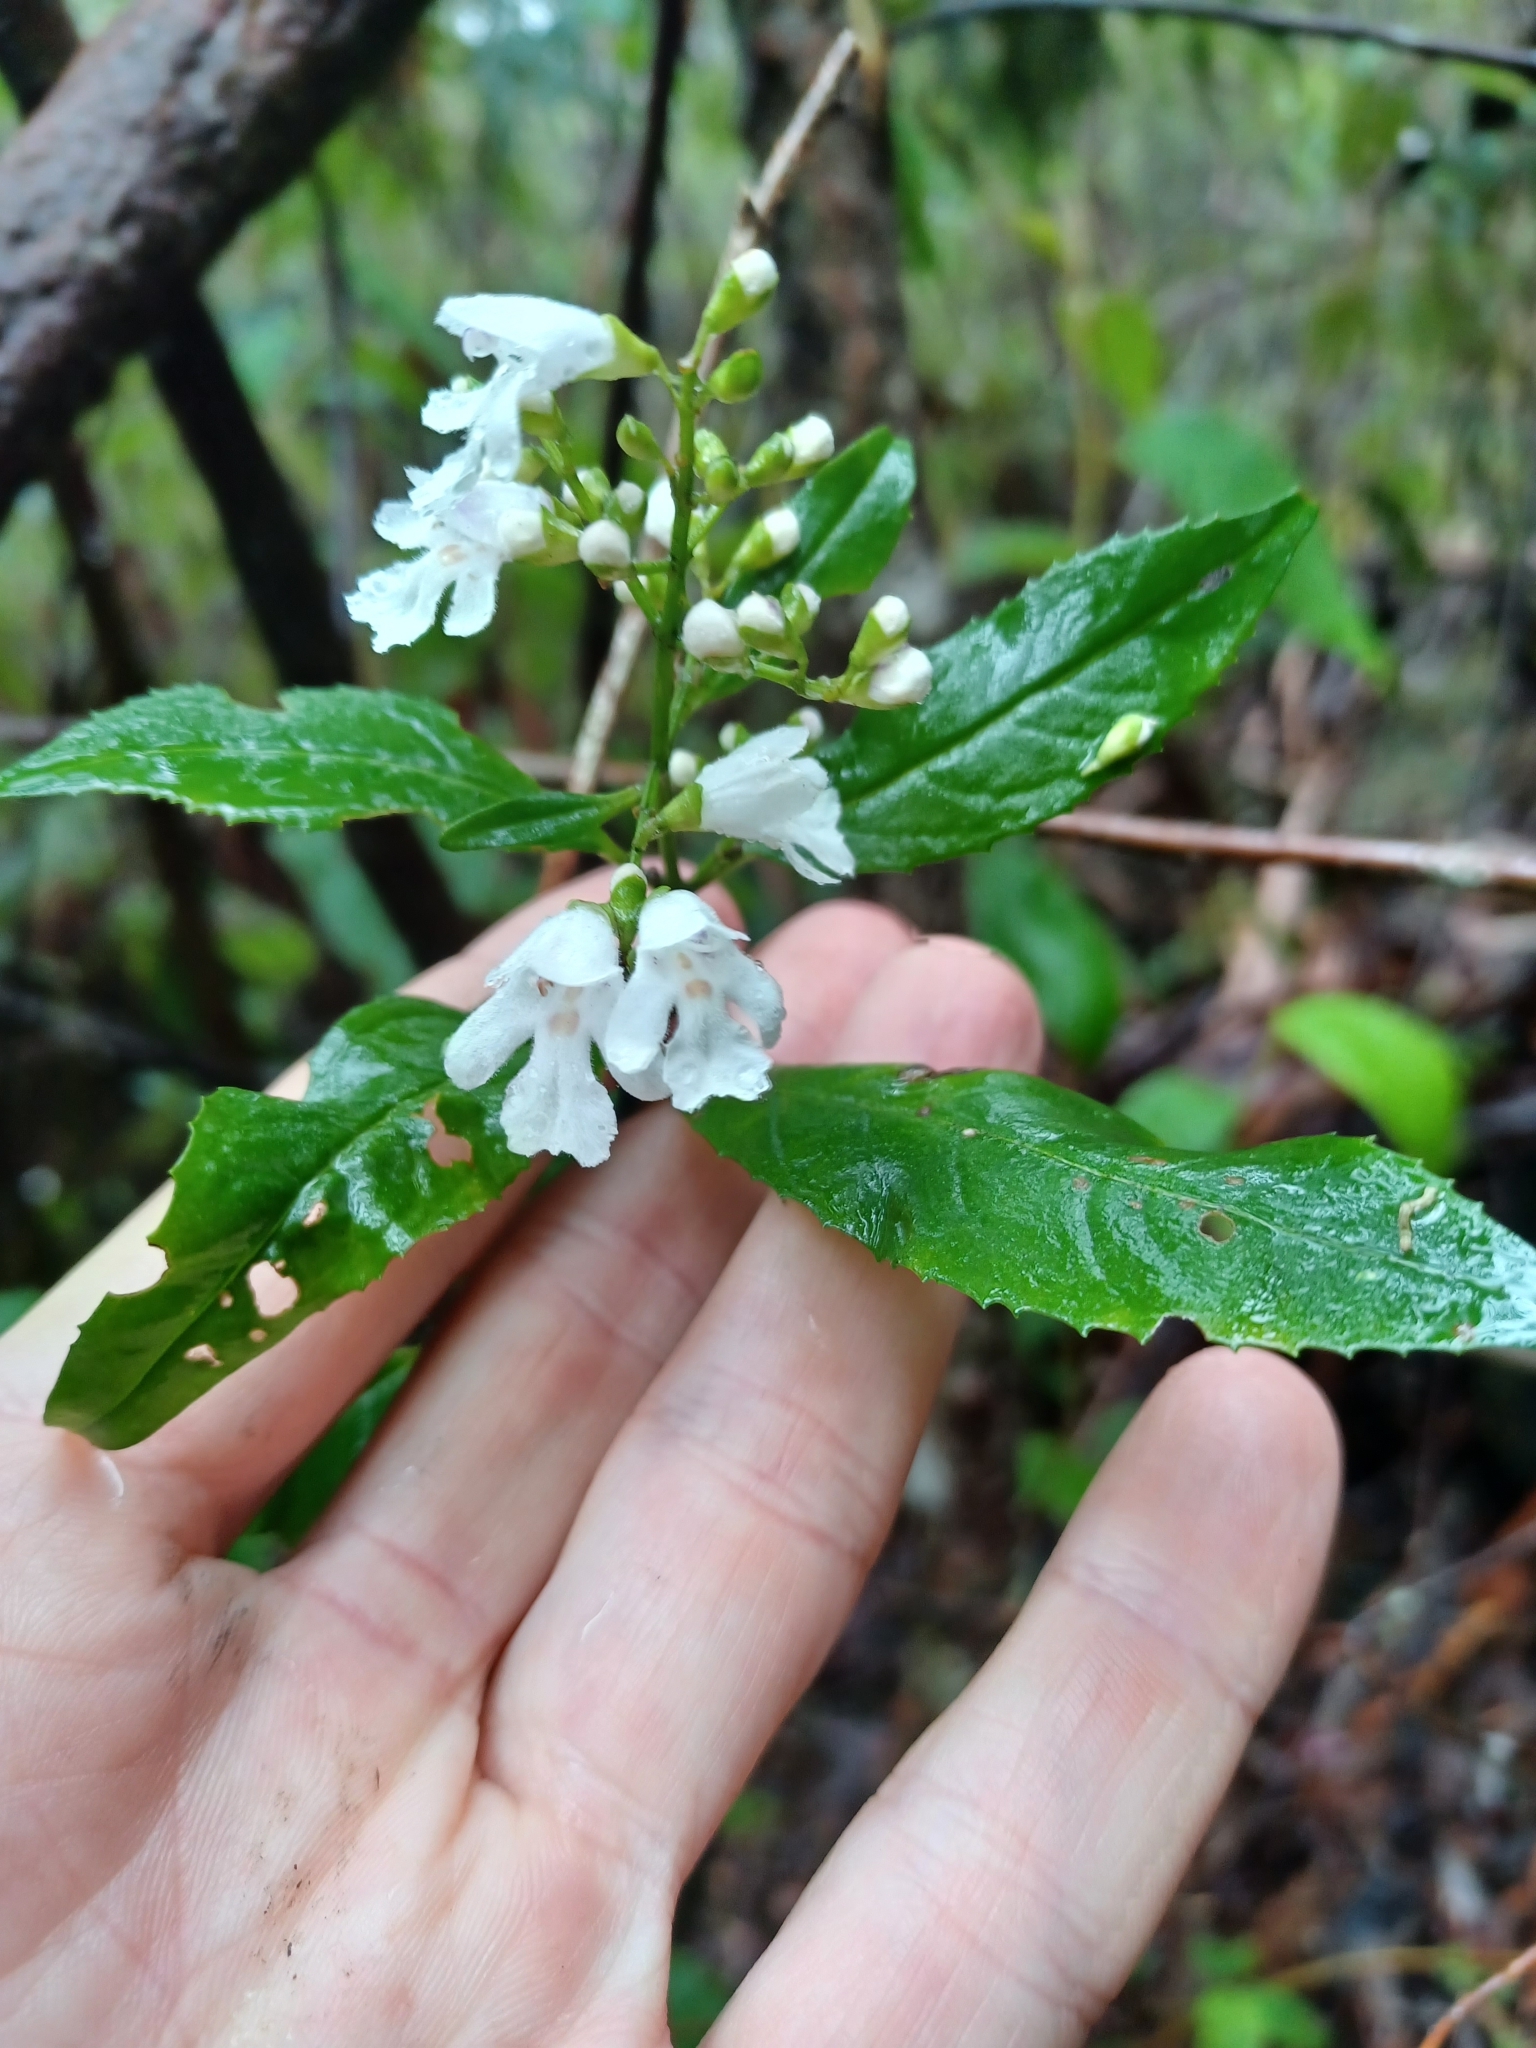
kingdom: Plantae
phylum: Tracheophyta
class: Magnoliopsida
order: Lamiales
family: Lamiaceae
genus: Prostanthera
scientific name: Prostanthera lasianthos
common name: Mountain-lilac
